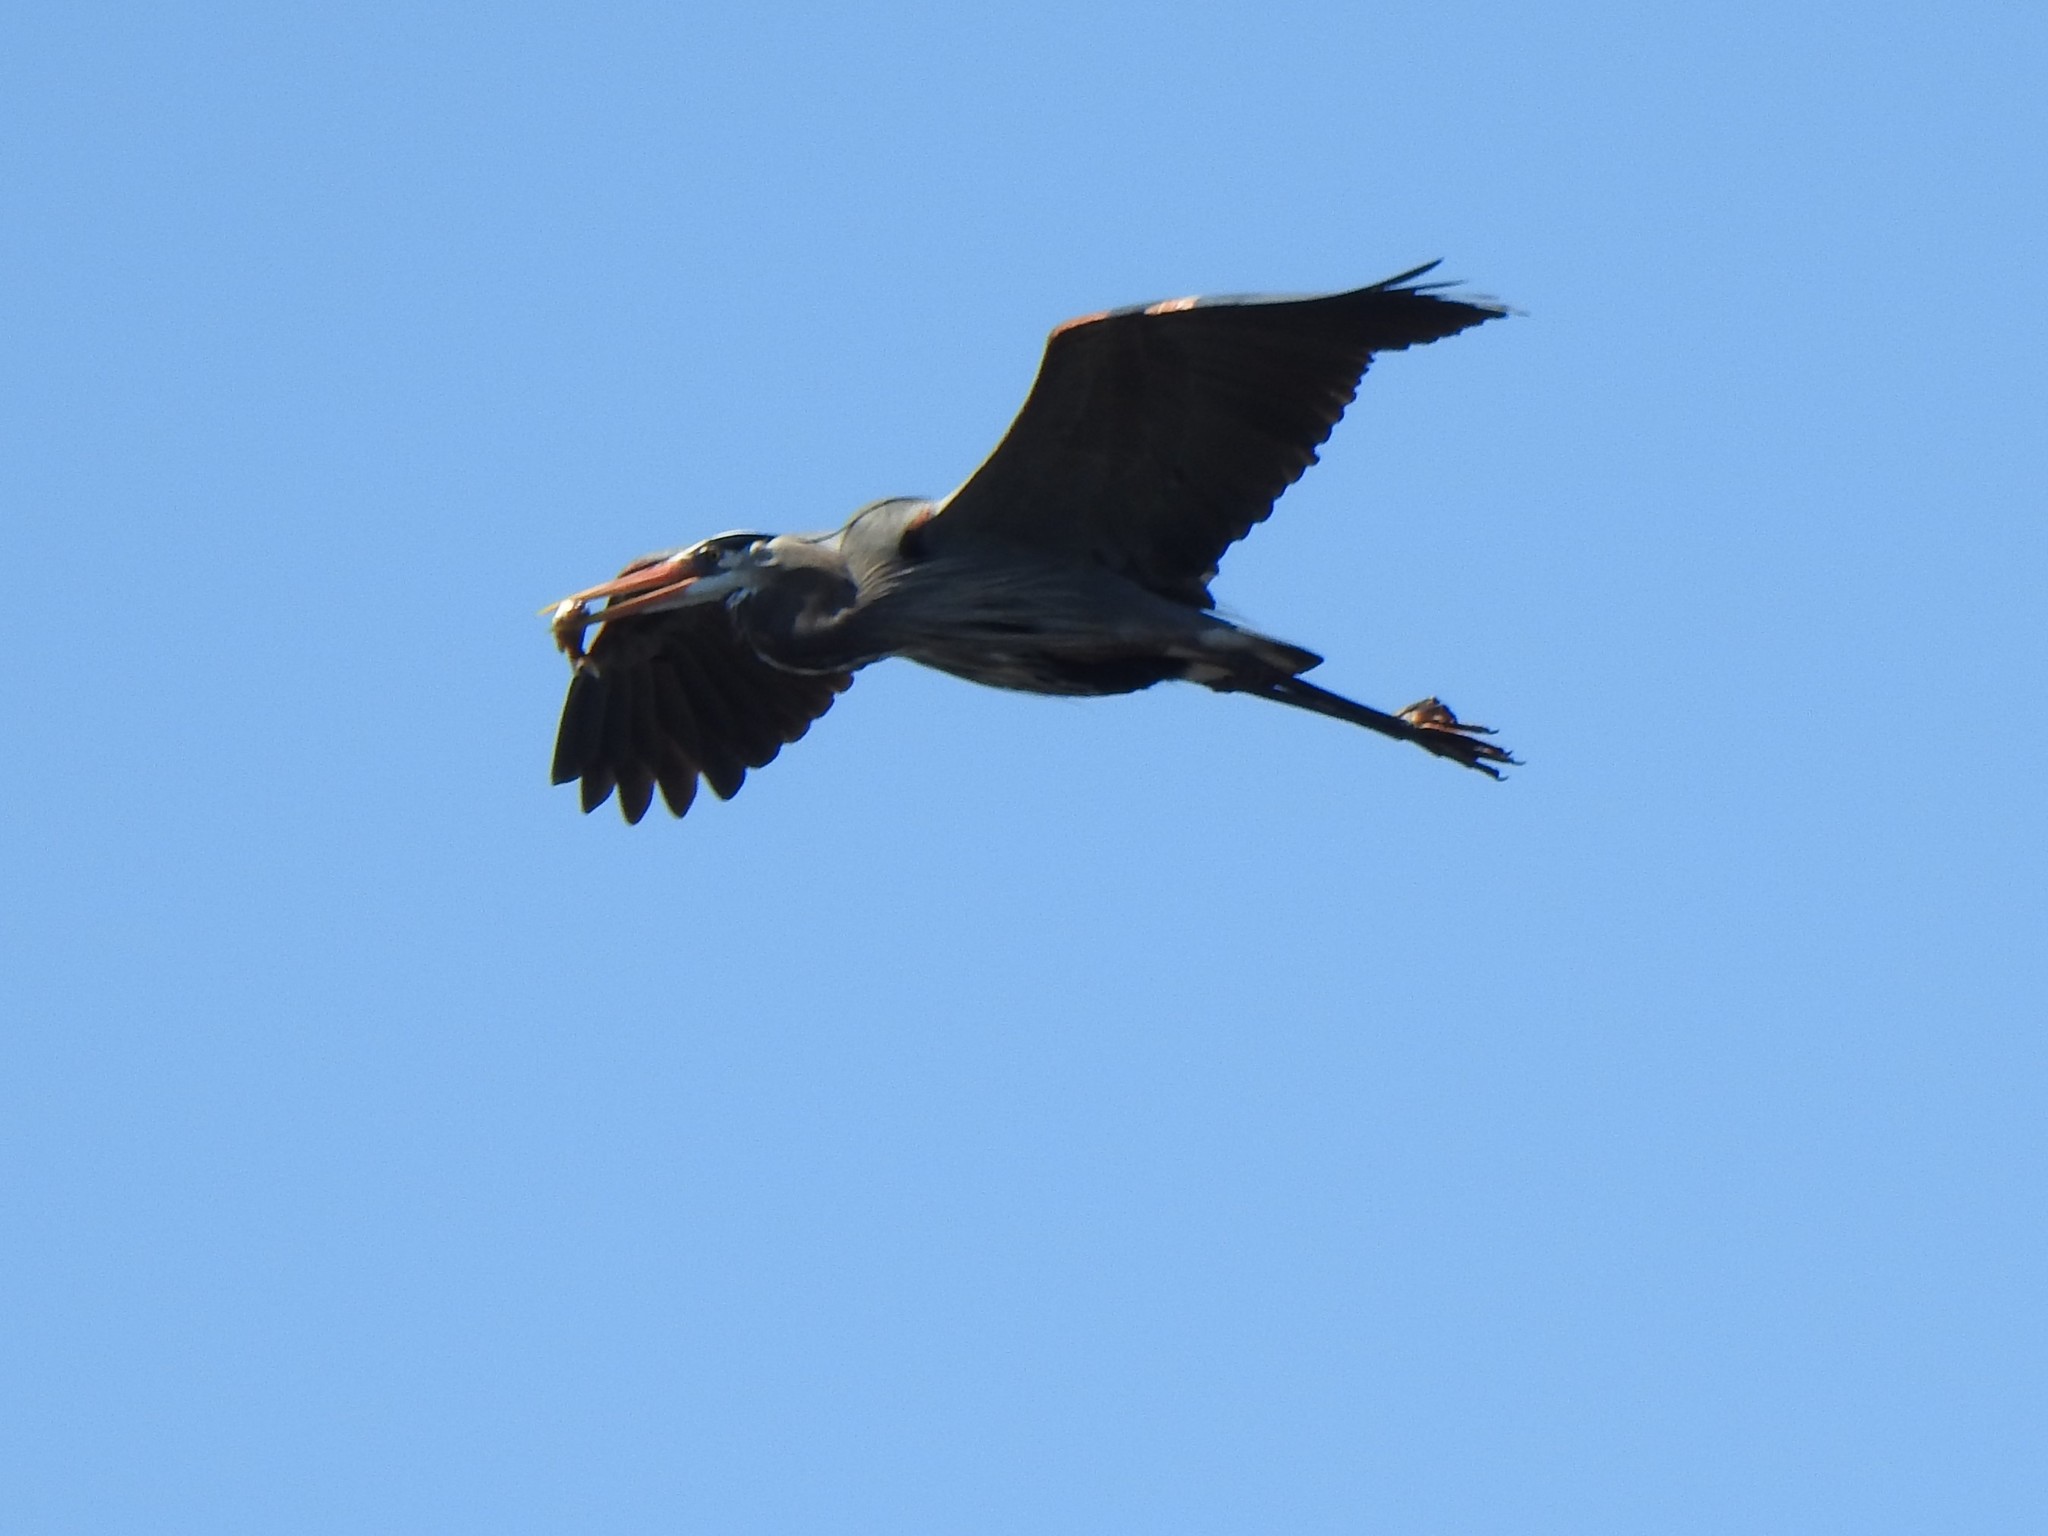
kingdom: Animalia
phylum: Chordata
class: Aves
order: Pelecaniformes
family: Ardeidae
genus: Ardea
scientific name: Ardea herodias
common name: Great blue heron
